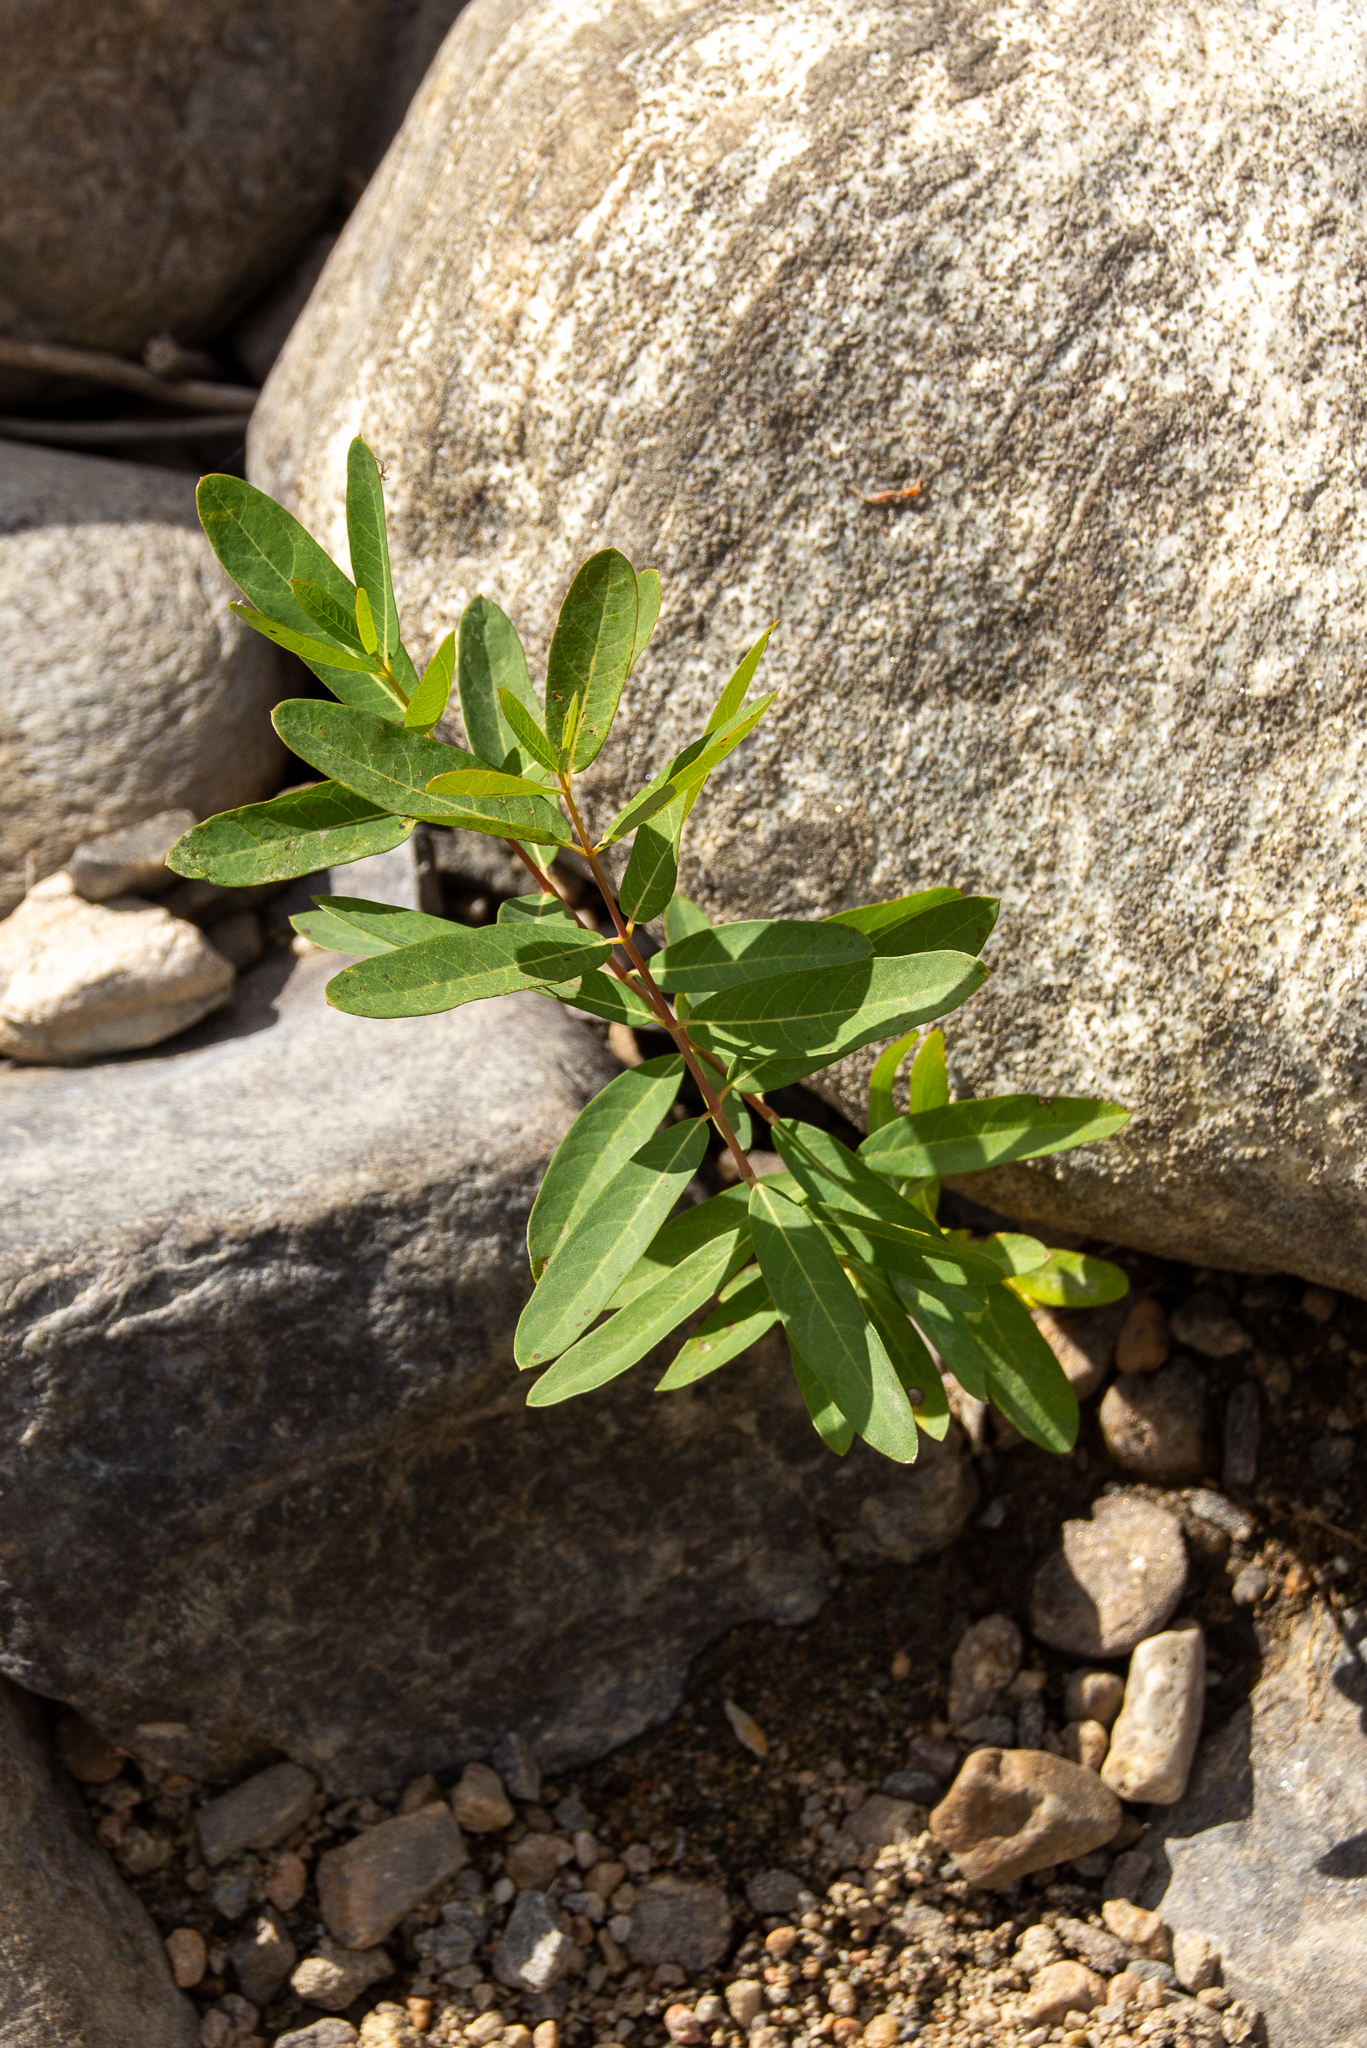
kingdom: Plantae
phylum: Tracheophyta
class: Magnoliopsida
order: Gentianales
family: Apocynaceae
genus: Apocynum
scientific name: Apocynum cannabinum
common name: Hemp dogbane
